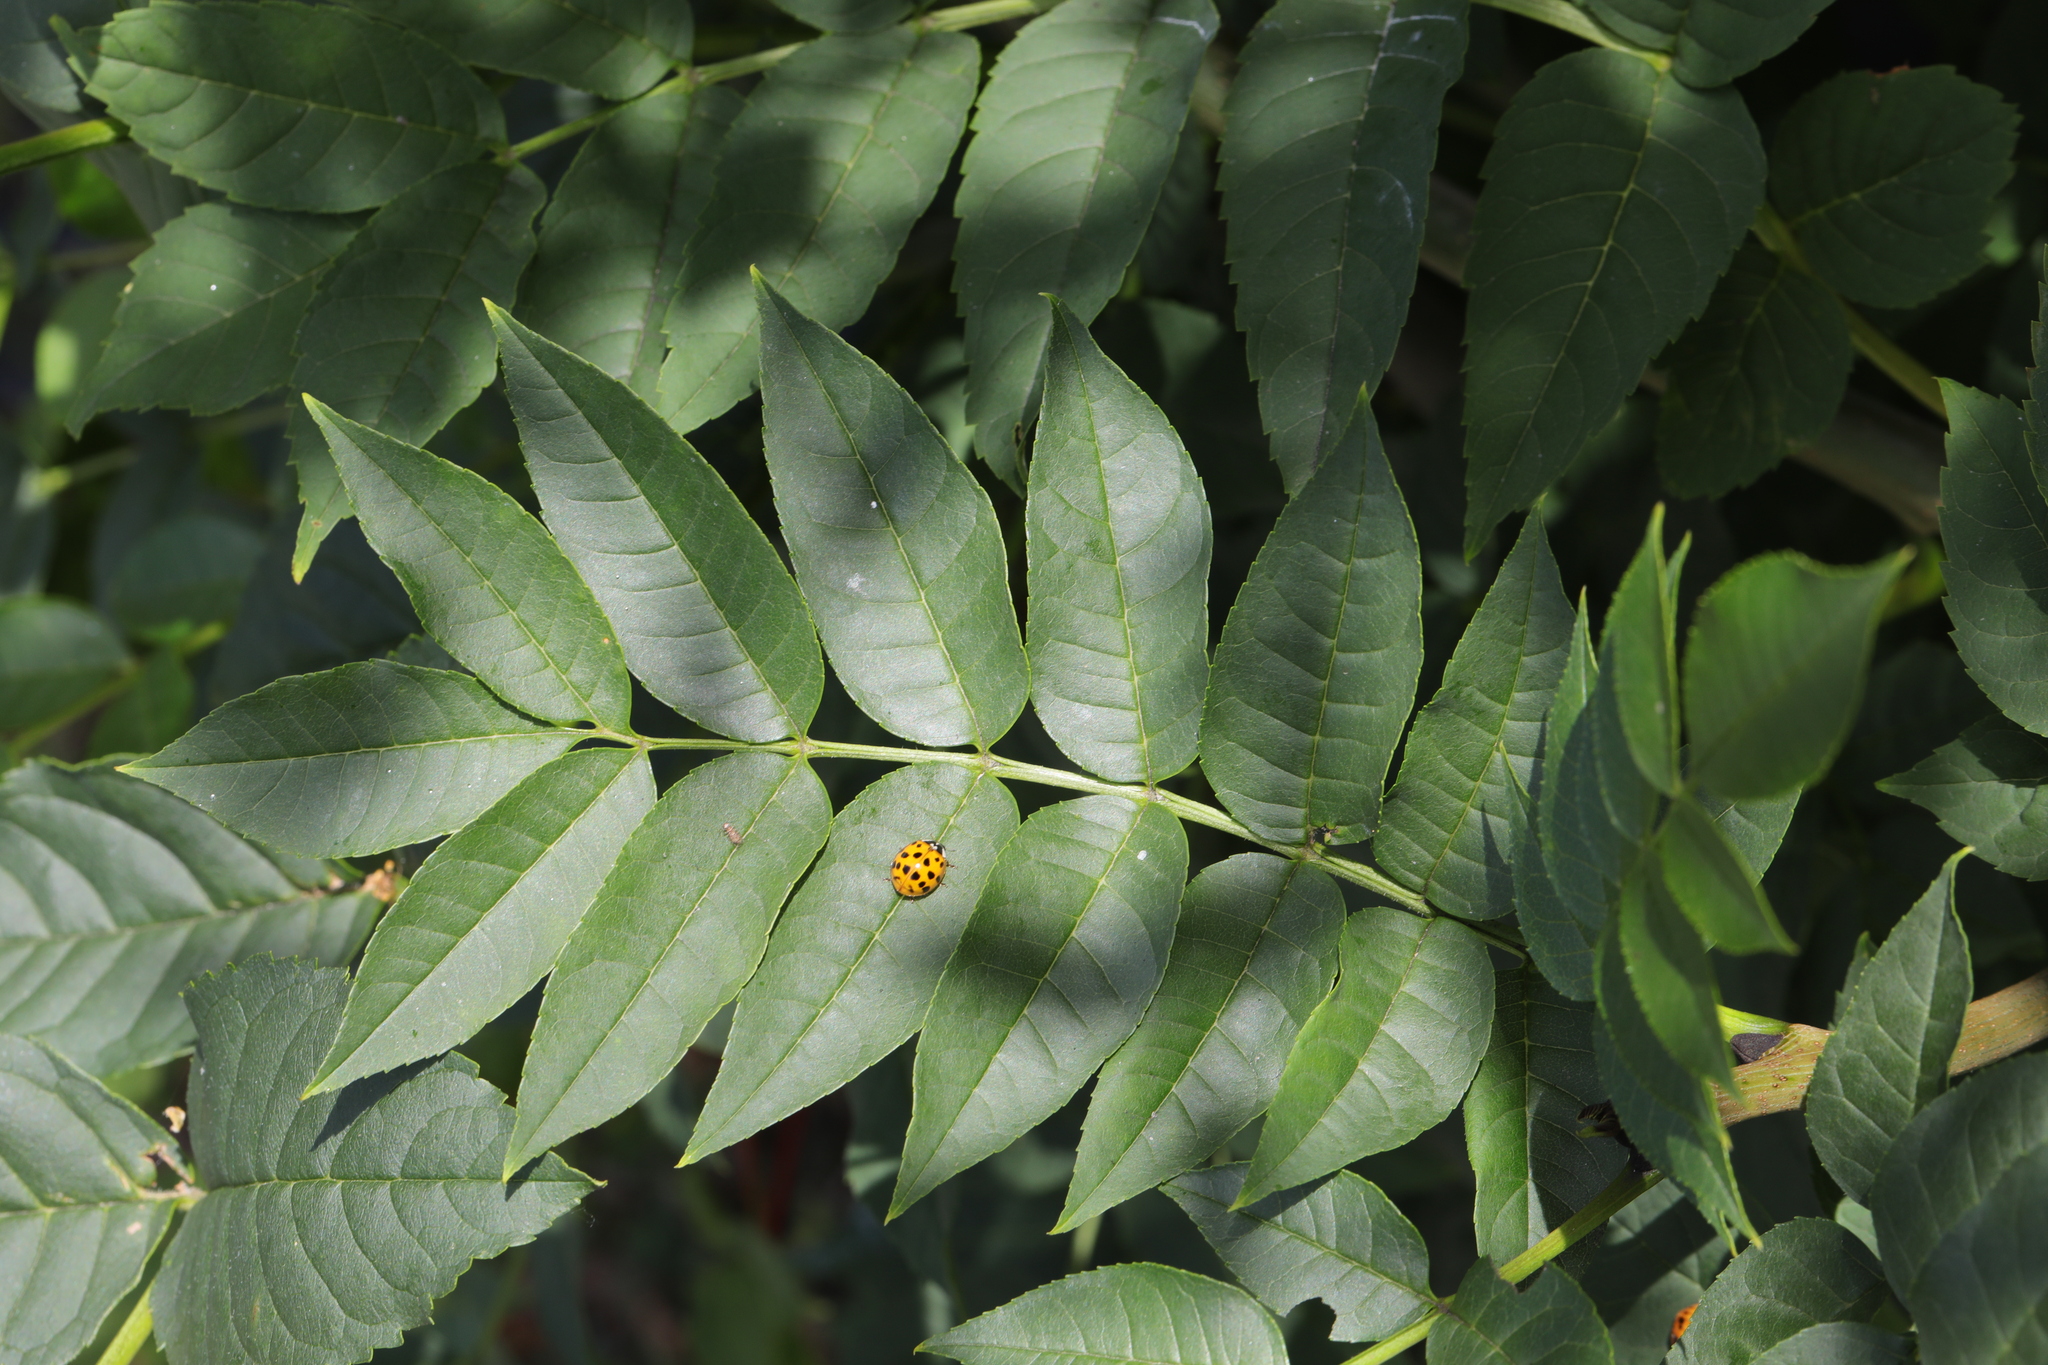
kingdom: Plantae
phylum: Tracheophyta
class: Magnoliopsida
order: Lamiales
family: Oleaceae
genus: Fraxinus
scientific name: Fraxinus excelsior
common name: European ash
